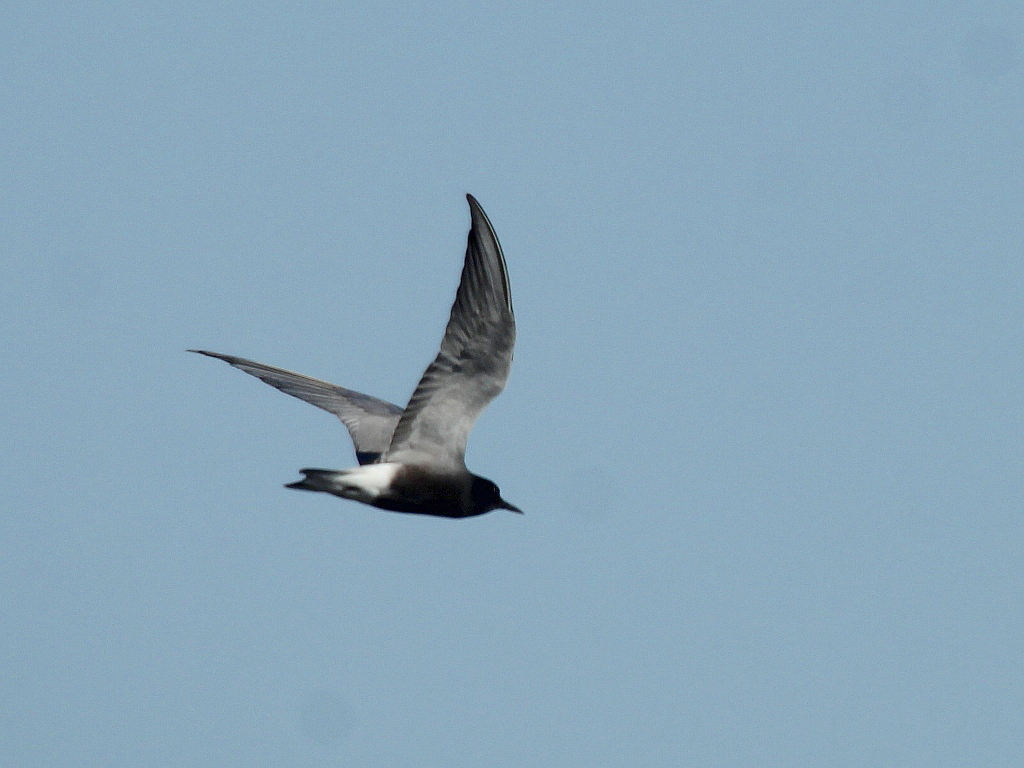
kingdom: Animalia
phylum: Chordata
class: Aves
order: Charadriiformes
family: Laridae
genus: Chlidonias
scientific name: Chlidonias niger
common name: Black tern
